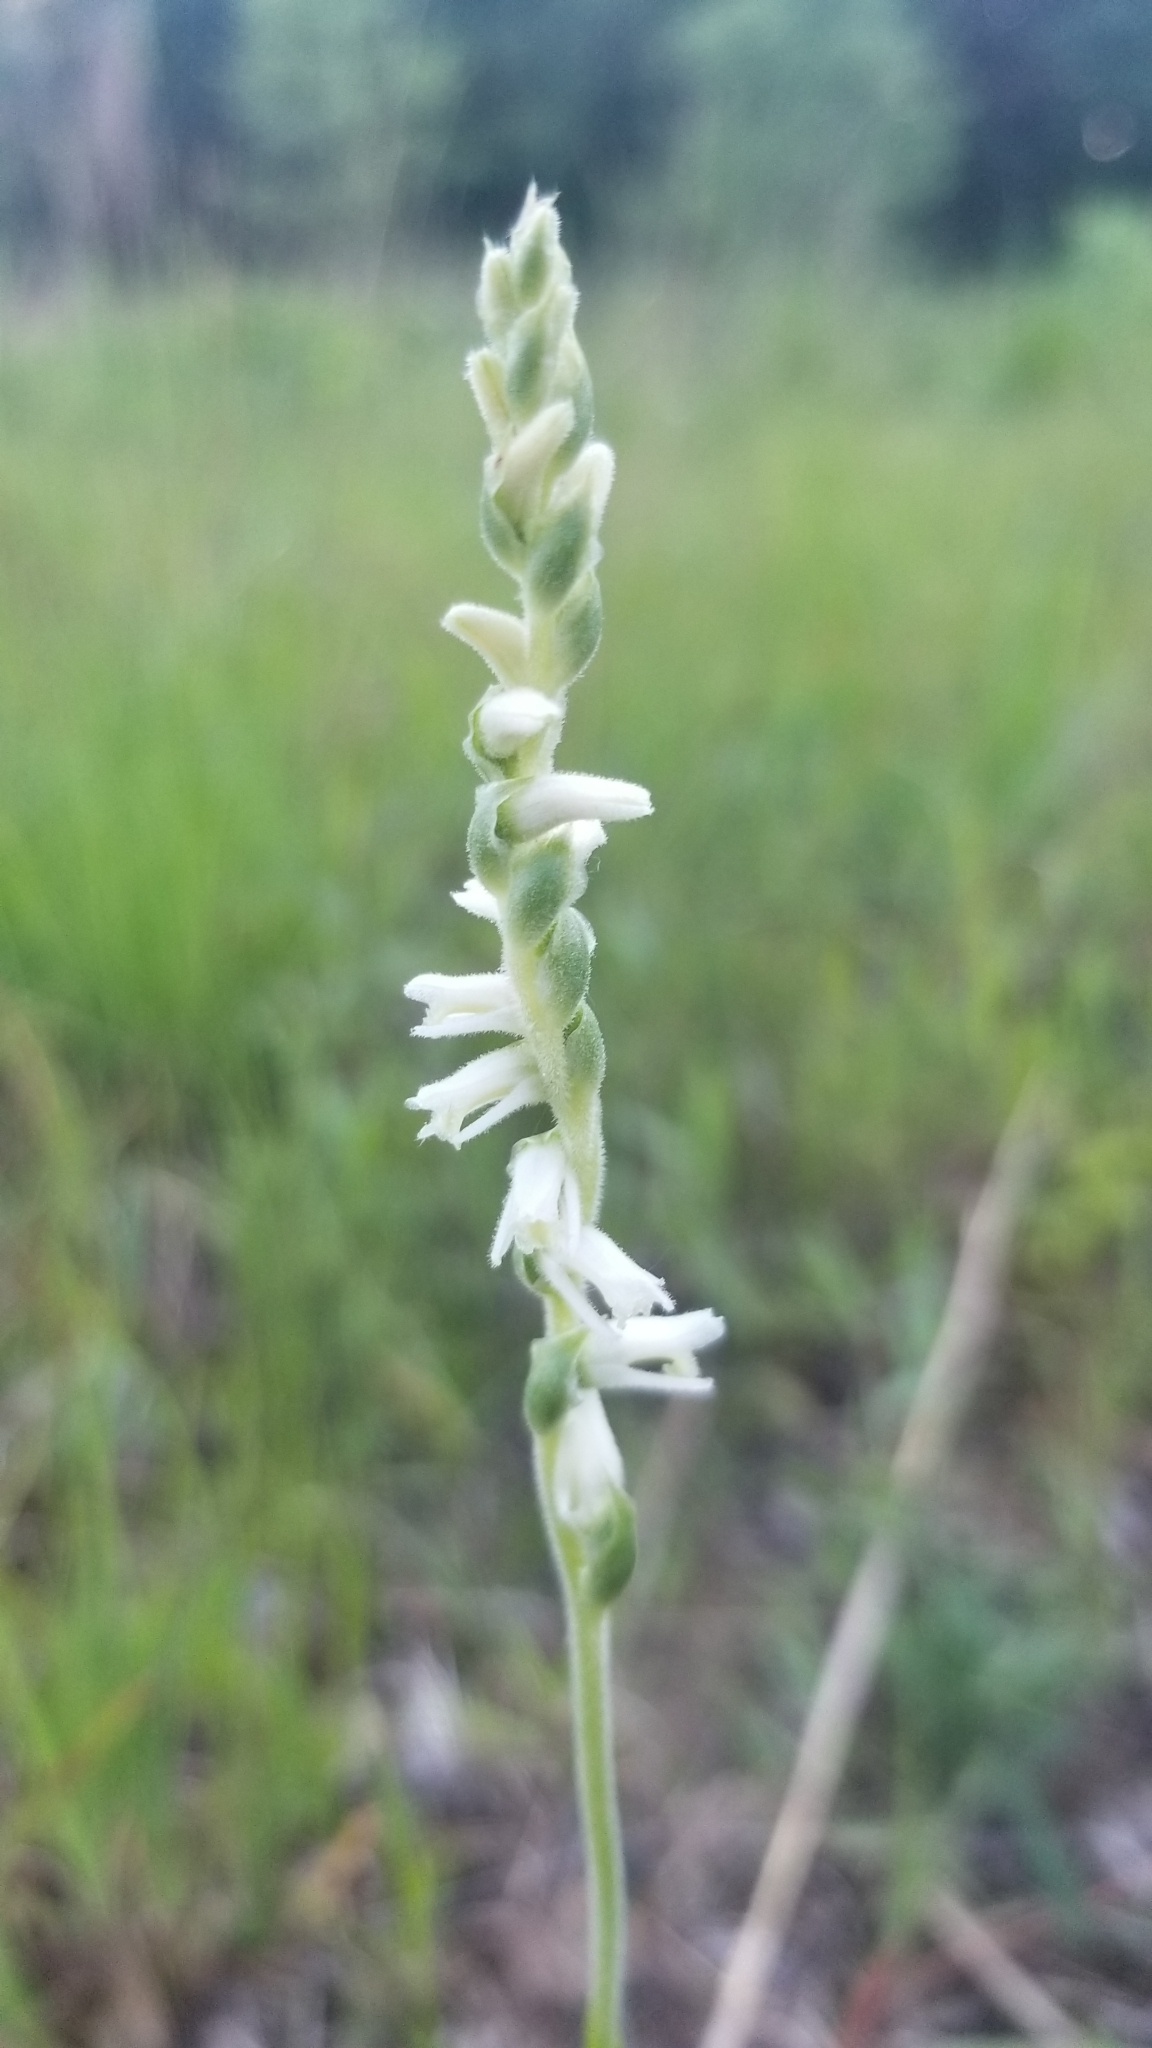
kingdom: Plantae
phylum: Tracheophyta
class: Liliopsida
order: Asparagales
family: Orchidaceae
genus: Spiranthes
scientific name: Spiranthes vernalis
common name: Spring ladies'-tresses
